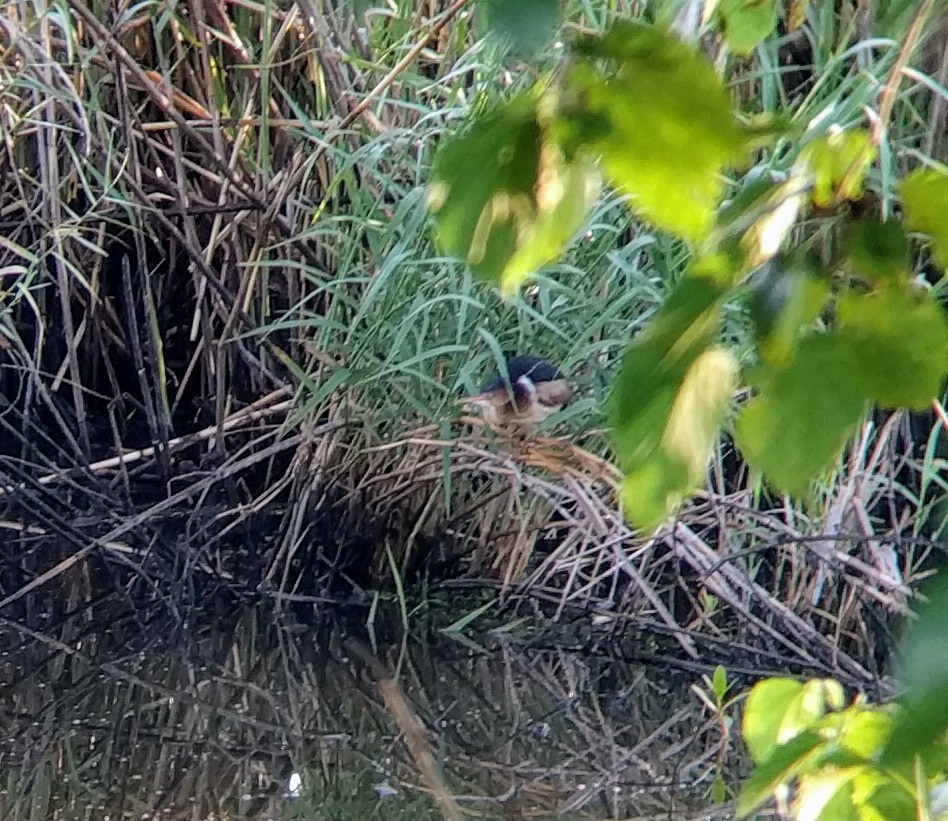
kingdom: Animalia
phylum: Chordata
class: Aves
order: Pelecaniformes
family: Ardeidae
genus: Ixobrychus
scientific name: Ixobrychus exilis
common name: Least bittern
